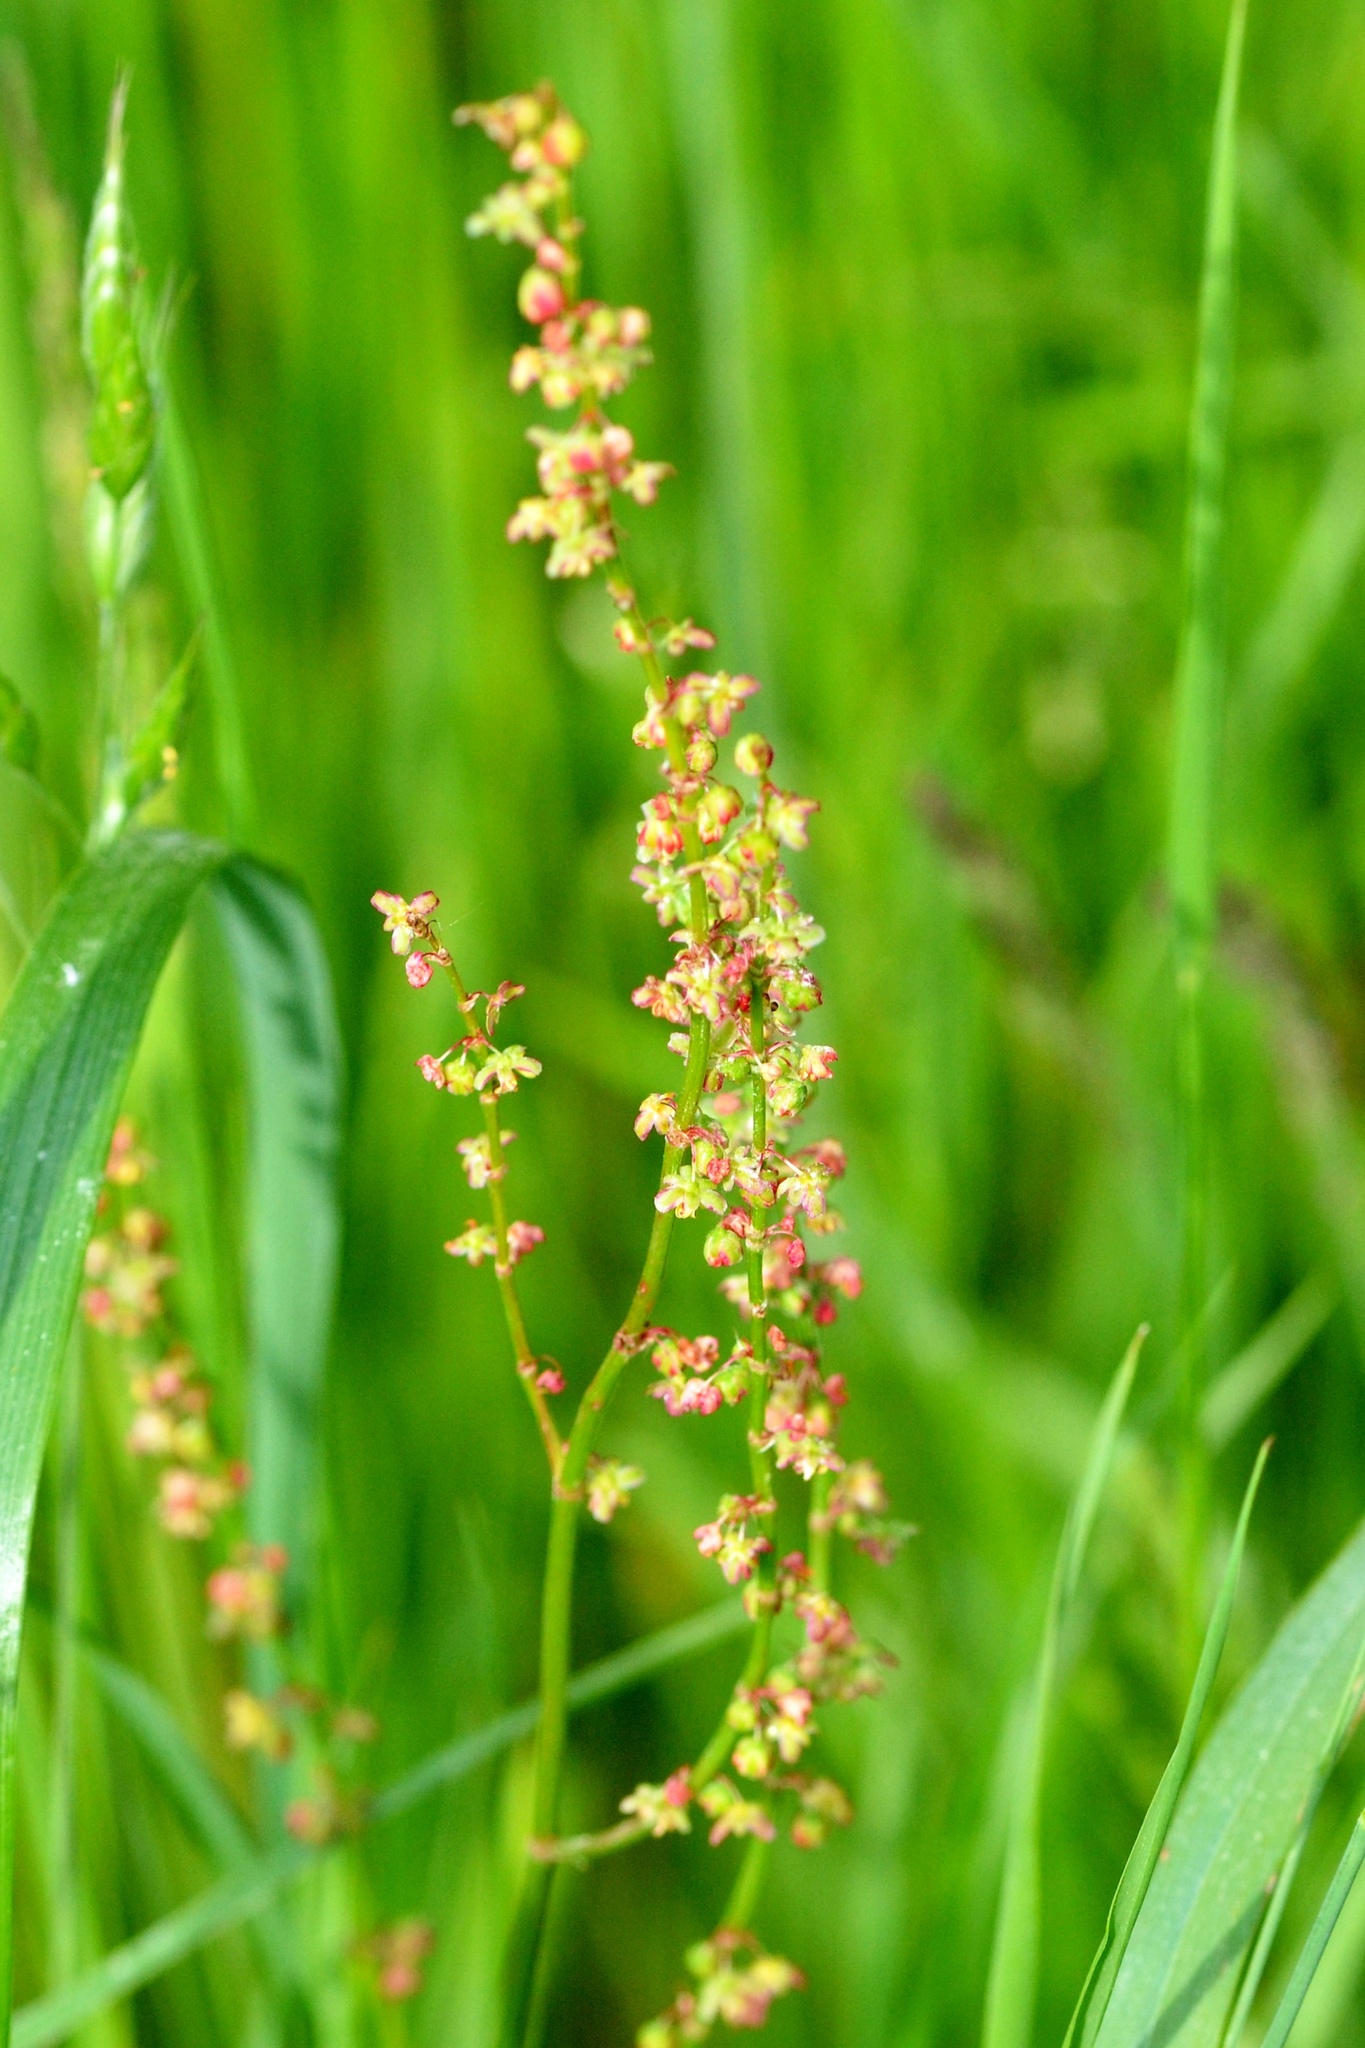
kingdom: Plantae
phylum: Tracheophyta
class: Magnoliopsida
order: Caryophyllales
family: Polygonaceae
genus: Rumex
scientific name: Rumex acetosa
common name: Garden sorrel
